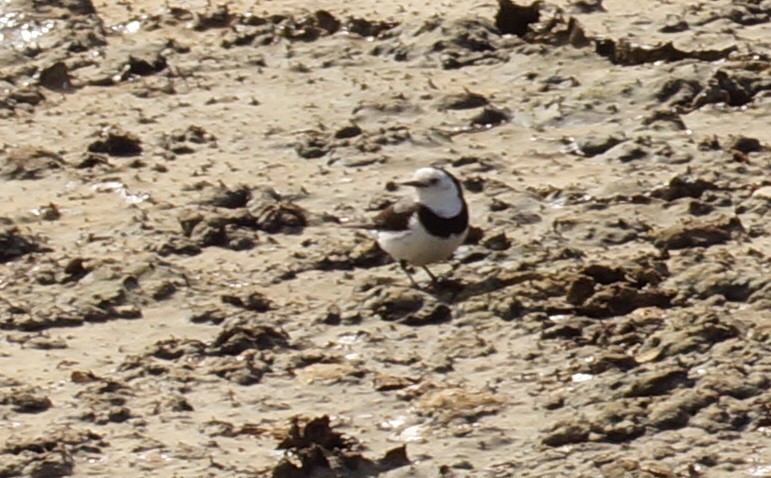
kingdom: Animalia
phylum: Chordata
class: Aves
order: Passeriformes
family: Meliphagidae
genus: Epthianura
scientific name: Epthianura albifrons
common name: White-fronted chat
